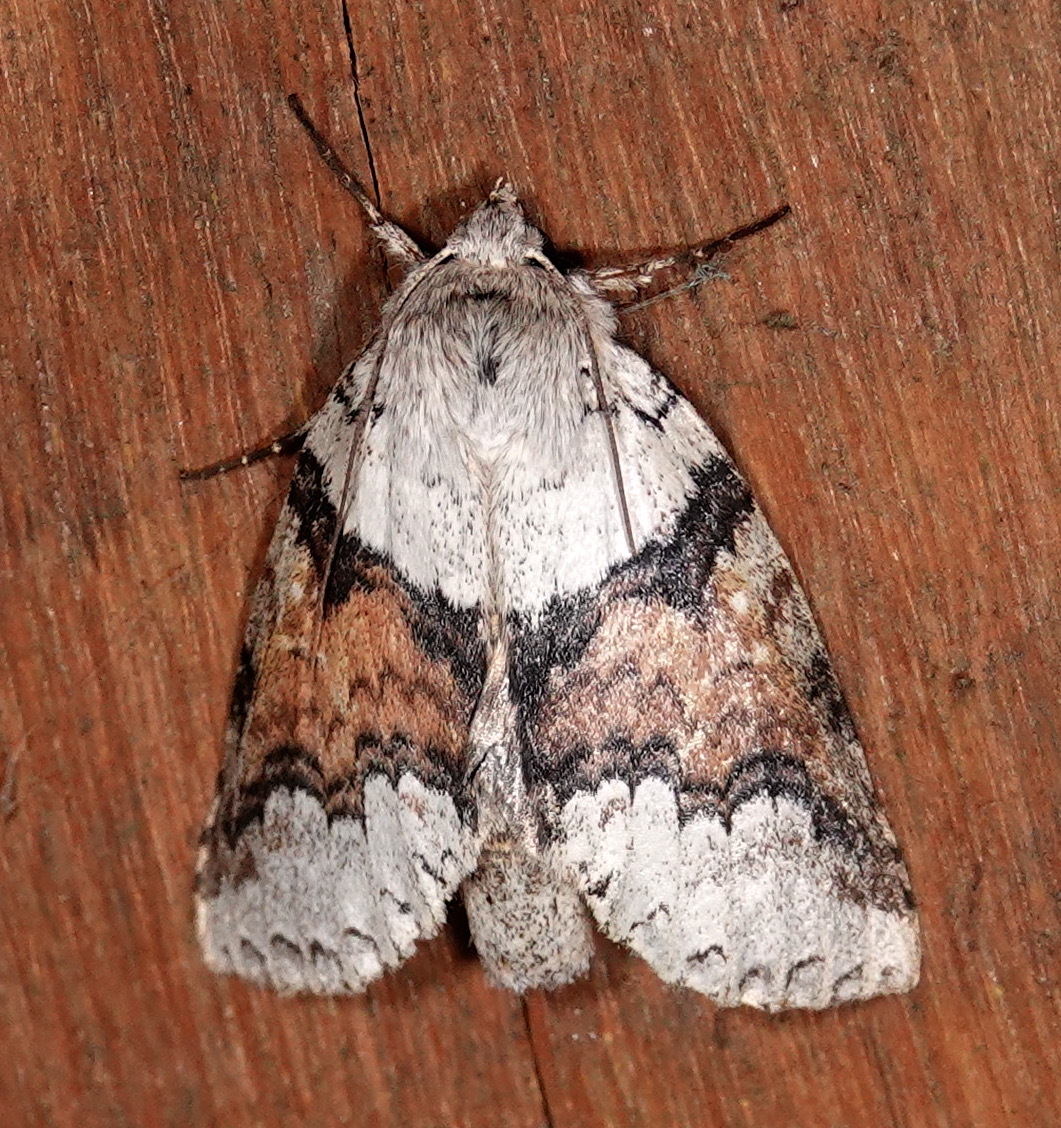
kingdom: Animalia
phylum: Arthropoda
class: Insecta
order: Lepidoptera
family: Notodontidae
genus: Meragisa
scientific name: Meragisa valdiviesoi
